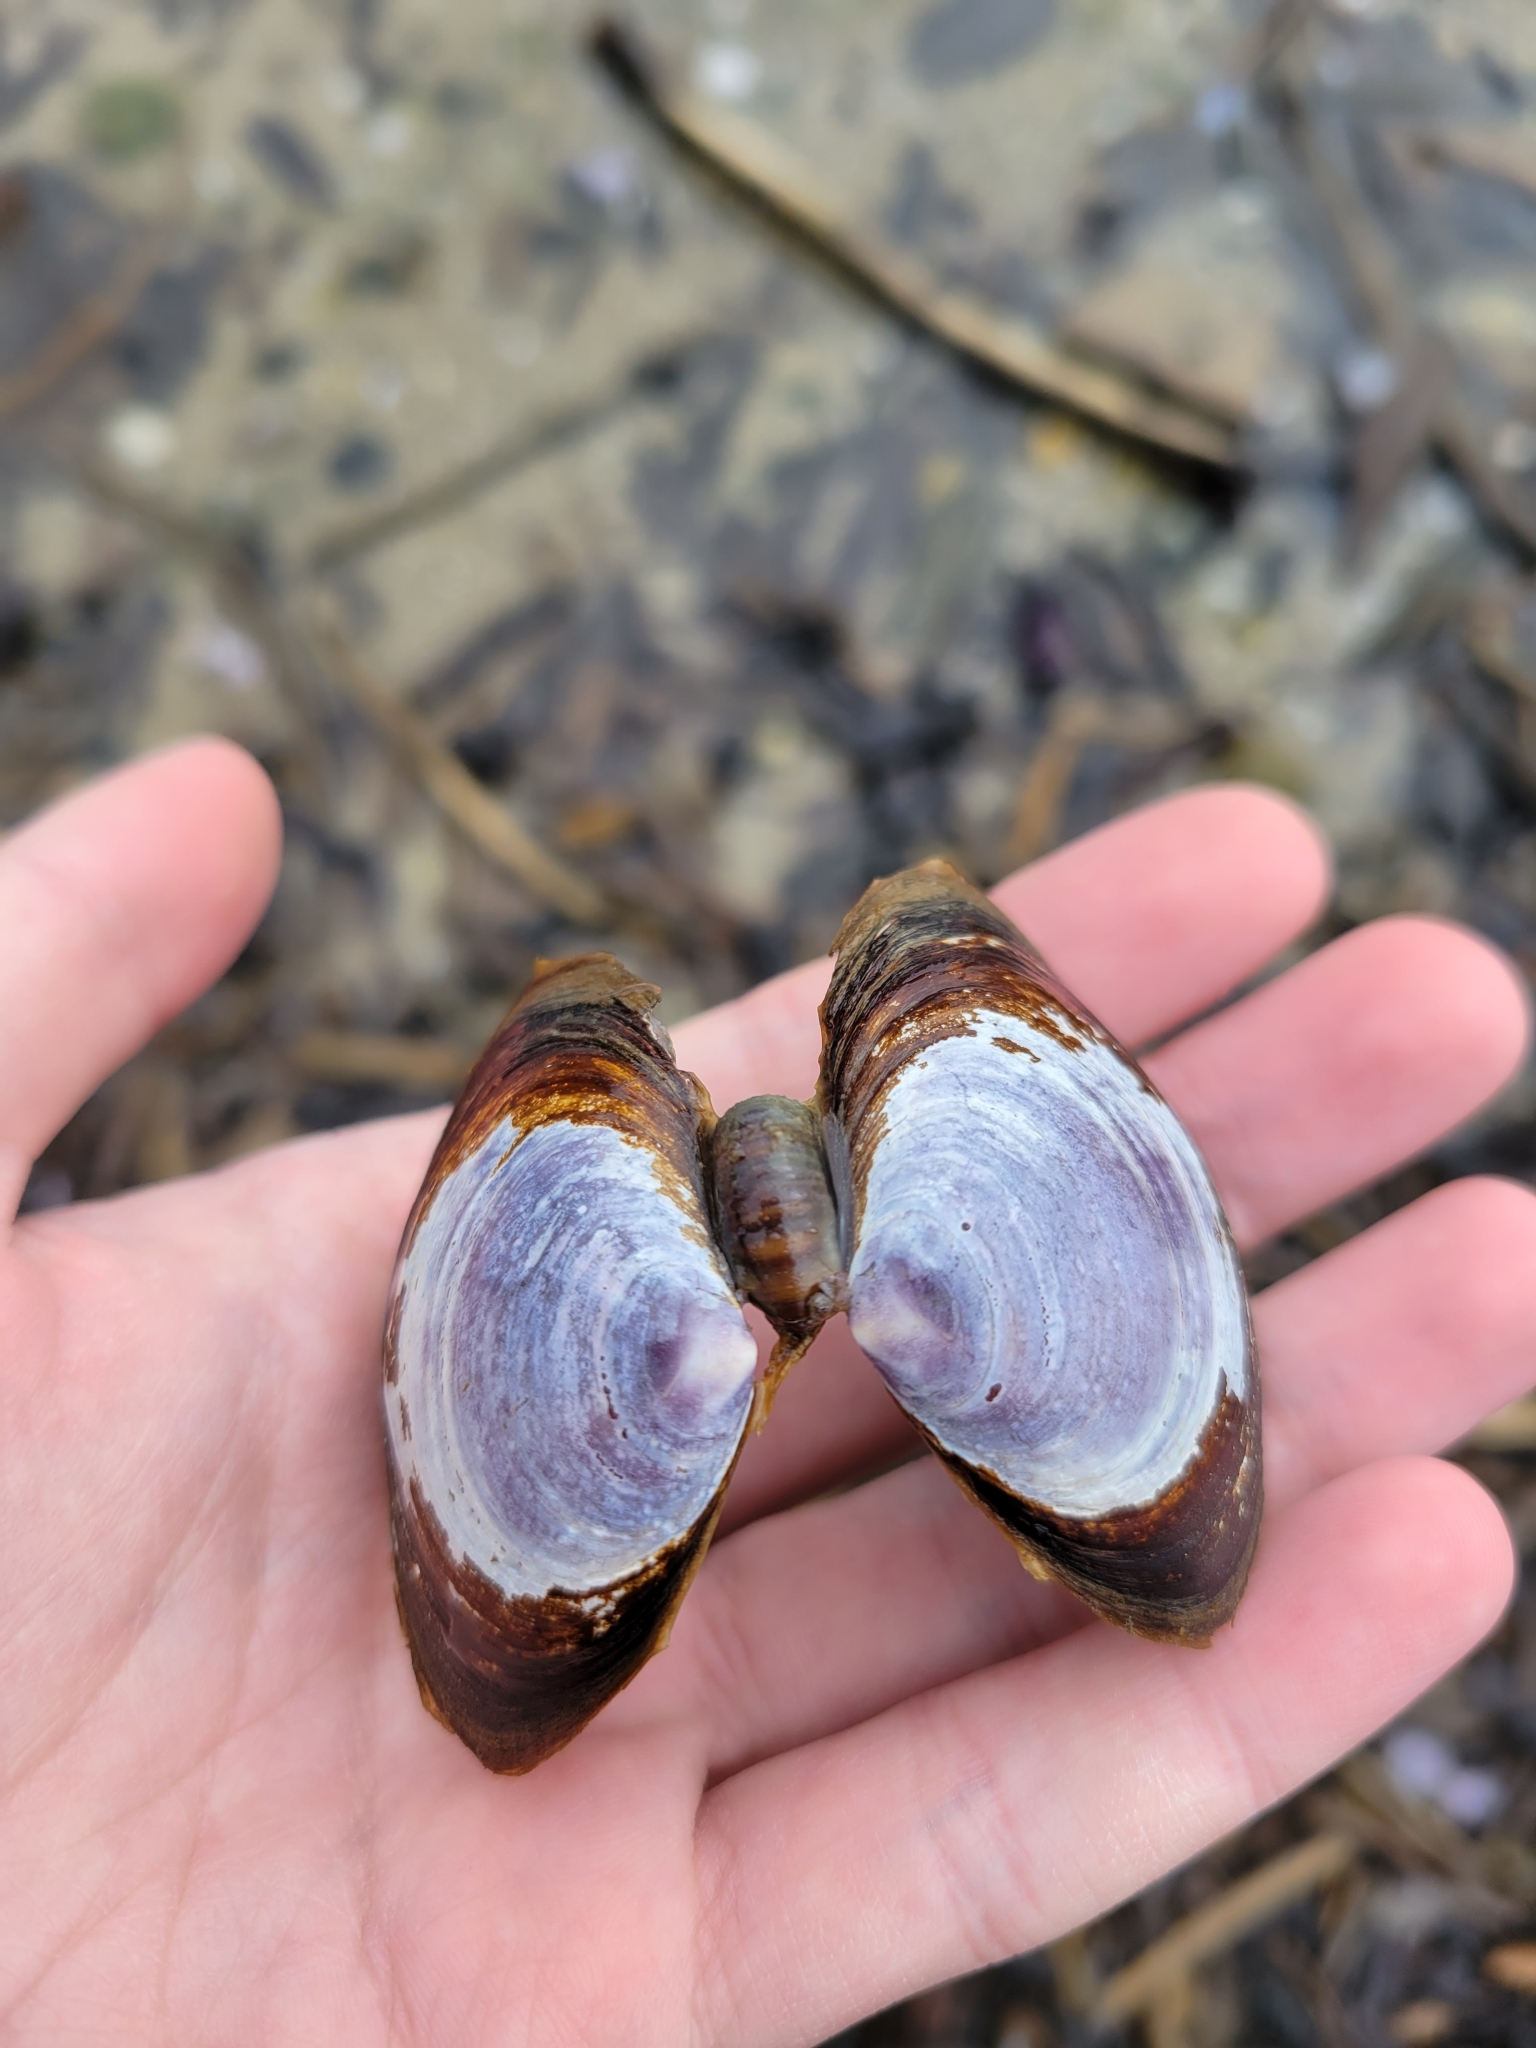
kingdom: Animalia
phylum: Mollusca
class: Bivalvia
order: Cardiida
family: Psammobiidae
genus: Nuttallia
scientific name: Nuttallia obscurata
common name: Purple mahogany-clam
